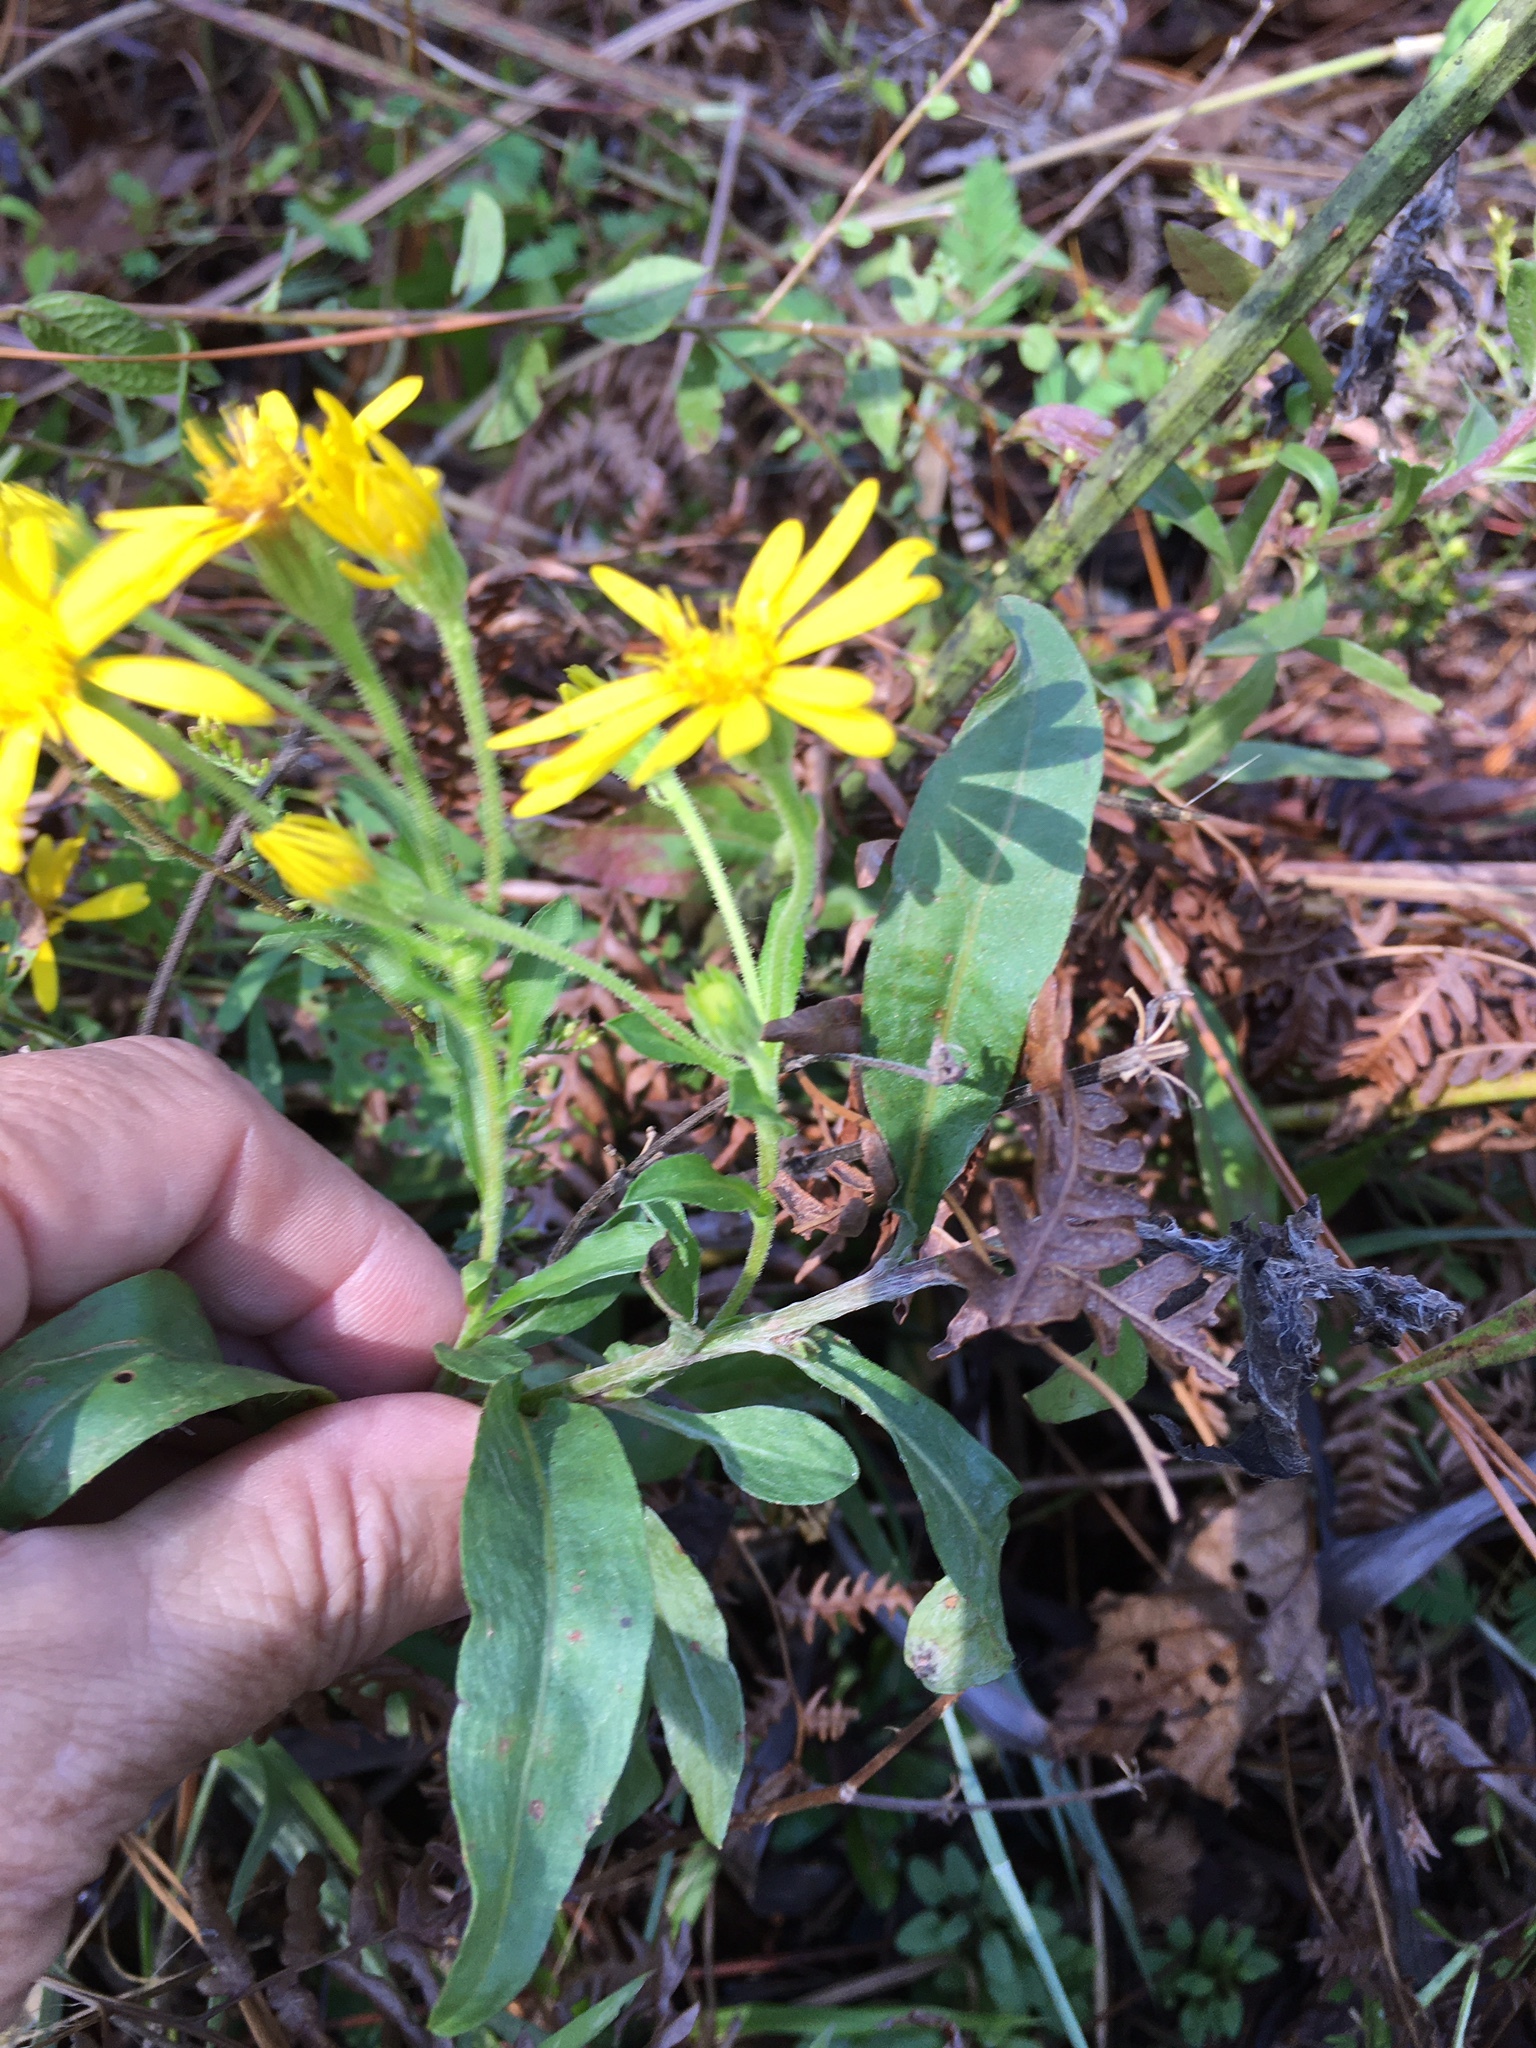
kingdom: Plantae
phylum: Tracheophyta
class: Magnoliopsida
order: Asterales
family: Asteraceae
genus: Chrysopsis
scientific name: Chrysopsis mariana
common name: Maryland golden-aster
